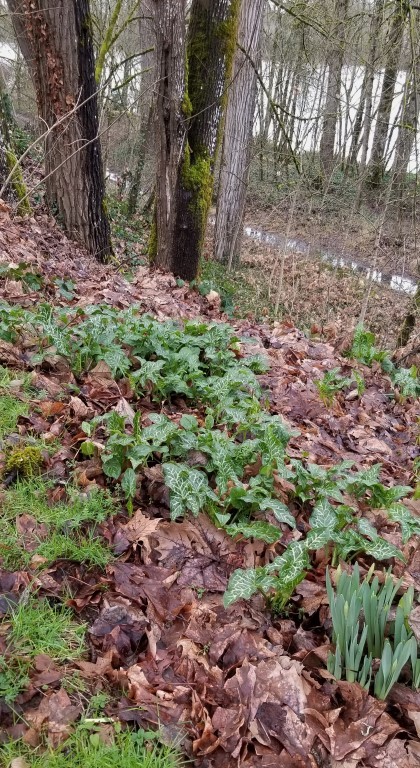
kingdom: Plantae
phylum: Tracheophyta
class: Liliopsida
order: Alismatales
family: Araceae
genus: Arum
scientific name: Arum italicum
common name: Italian lords-and-ladies
